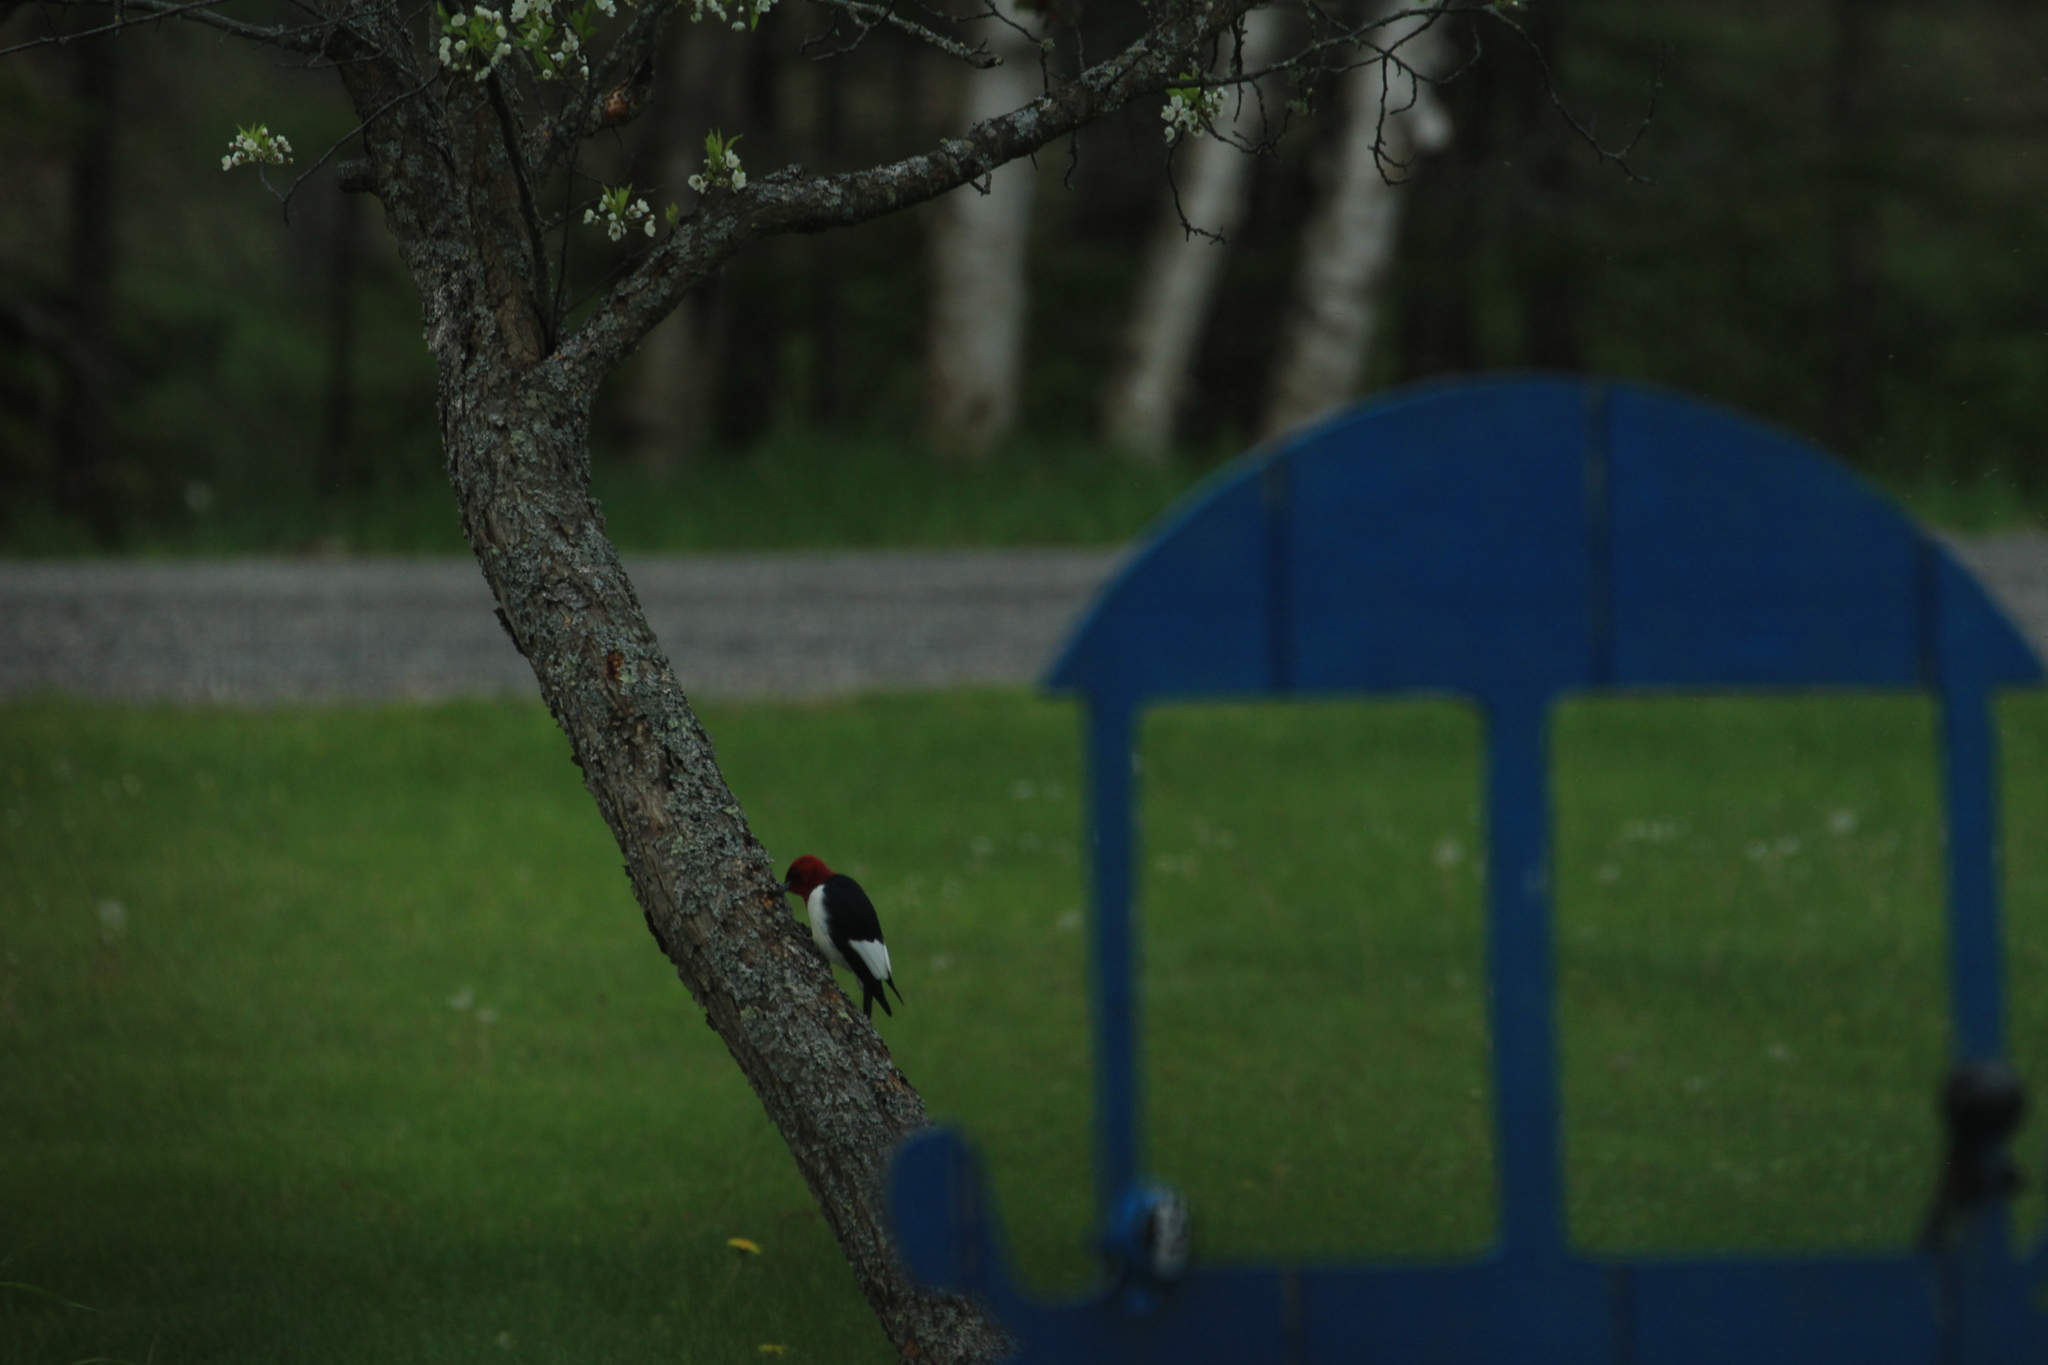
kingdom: Animalia
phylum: Chordata
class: Aves
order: Piciformes
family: Picidae
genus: Melanerpes
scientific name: Melanerpes erythrocephalus
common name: Red-headed woodpecker
